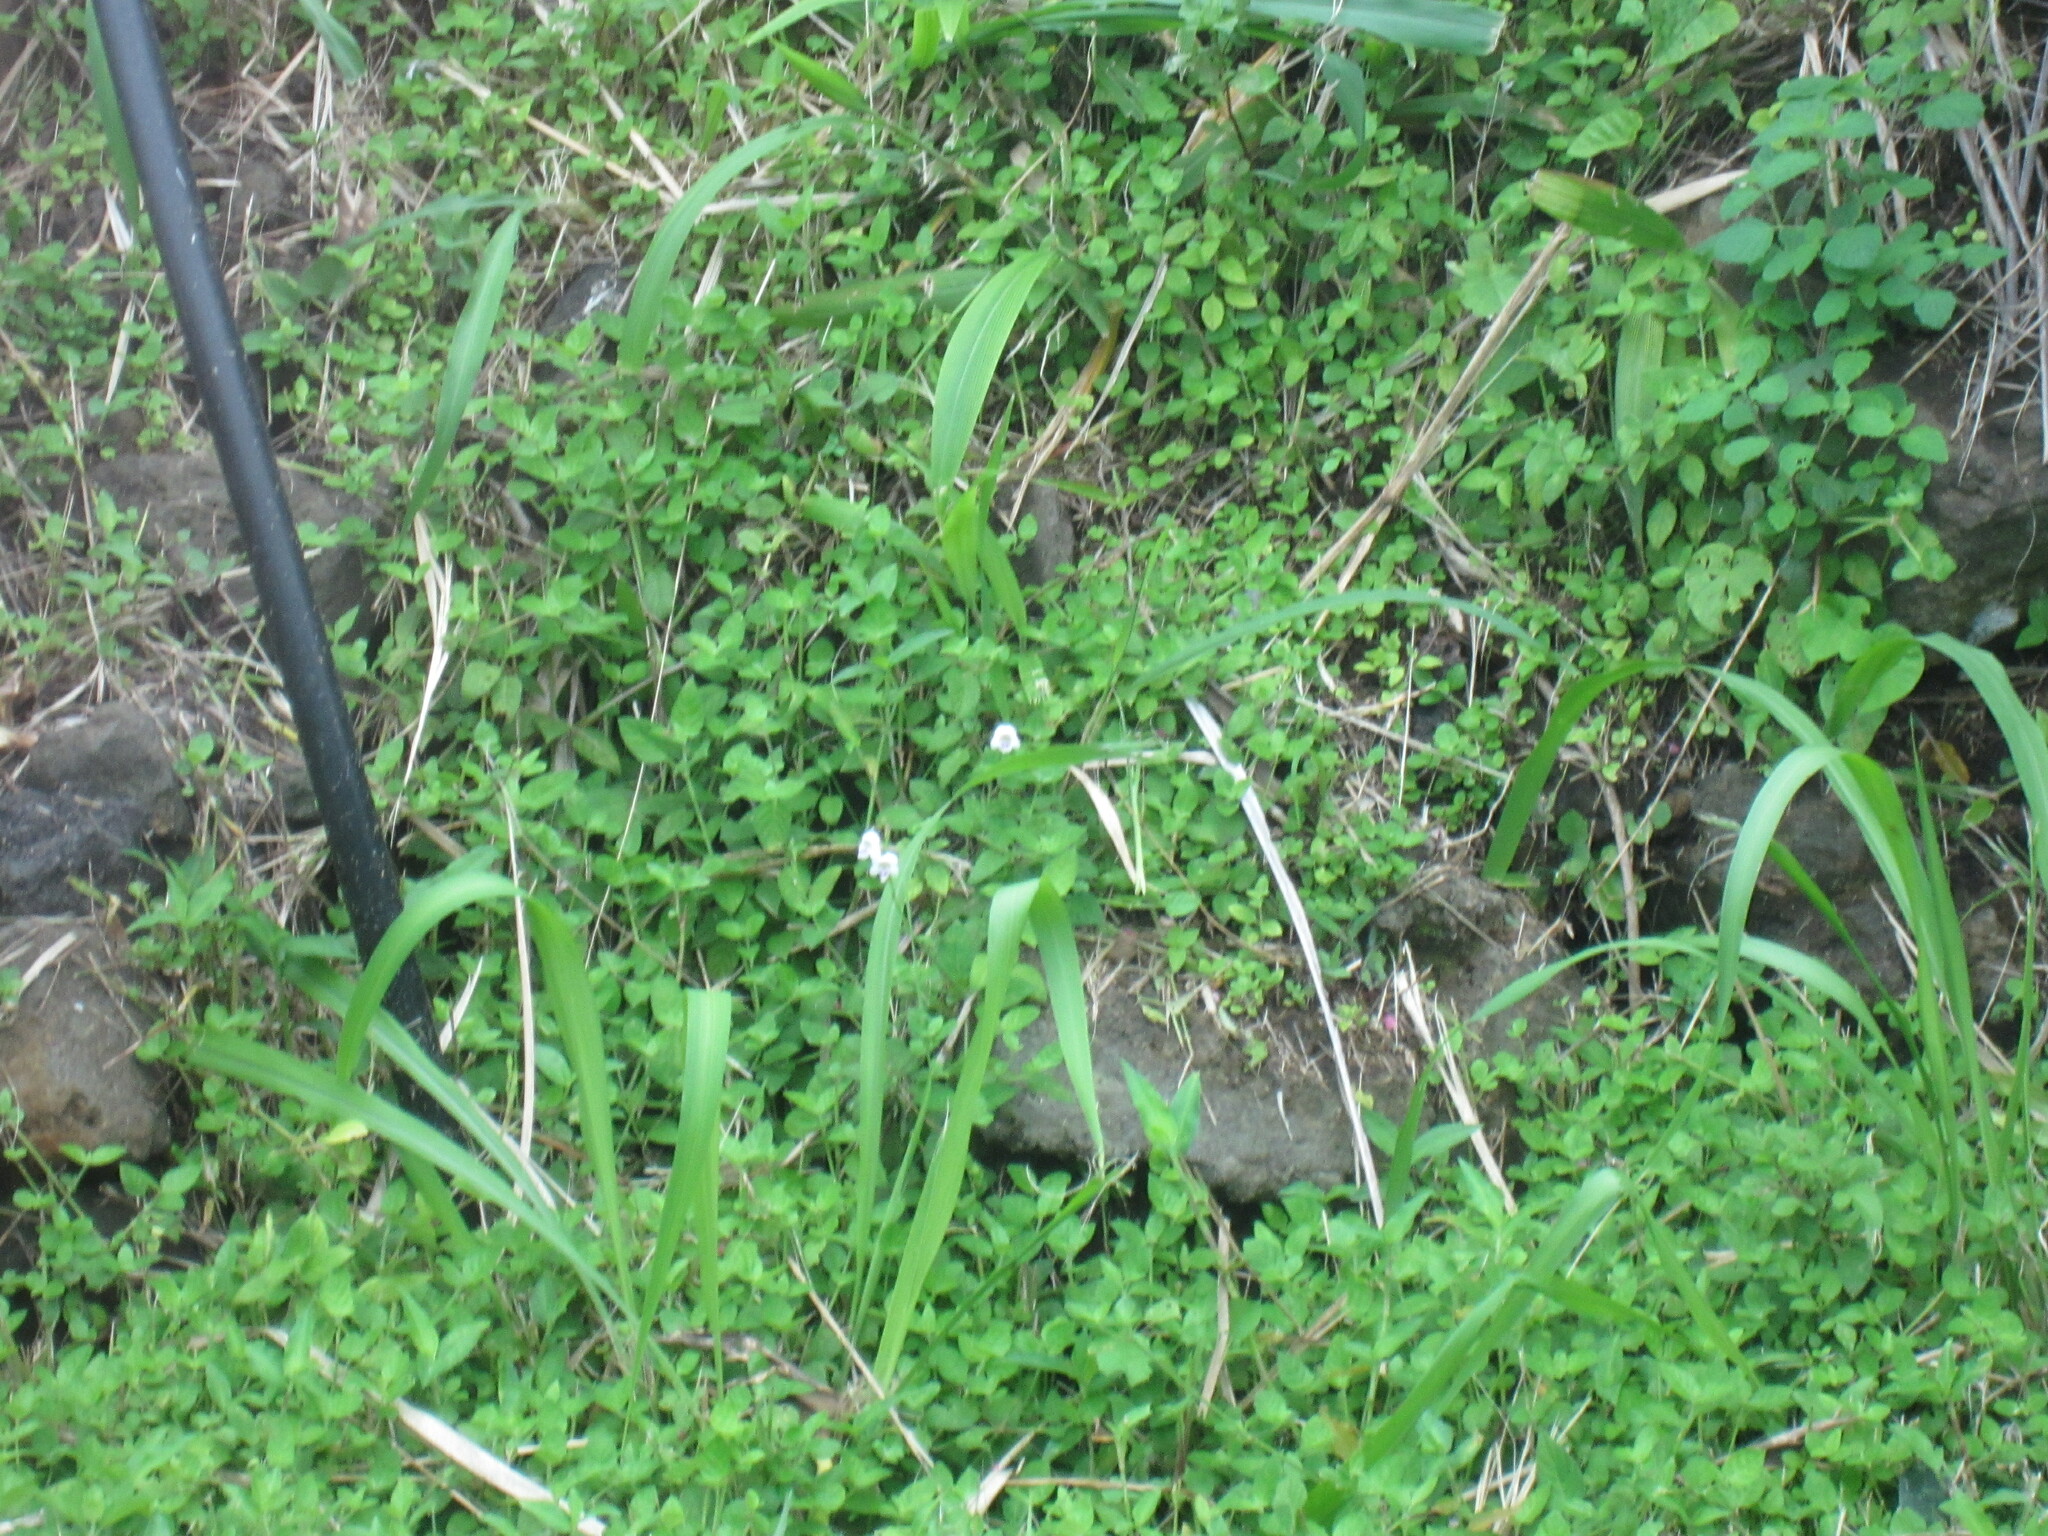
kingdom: Plantae
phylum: Tracheophyta
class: Magnoliopsida
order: Lamiales
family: Acanthaceae
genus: Asystasia
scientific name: Asystasia intrusa
